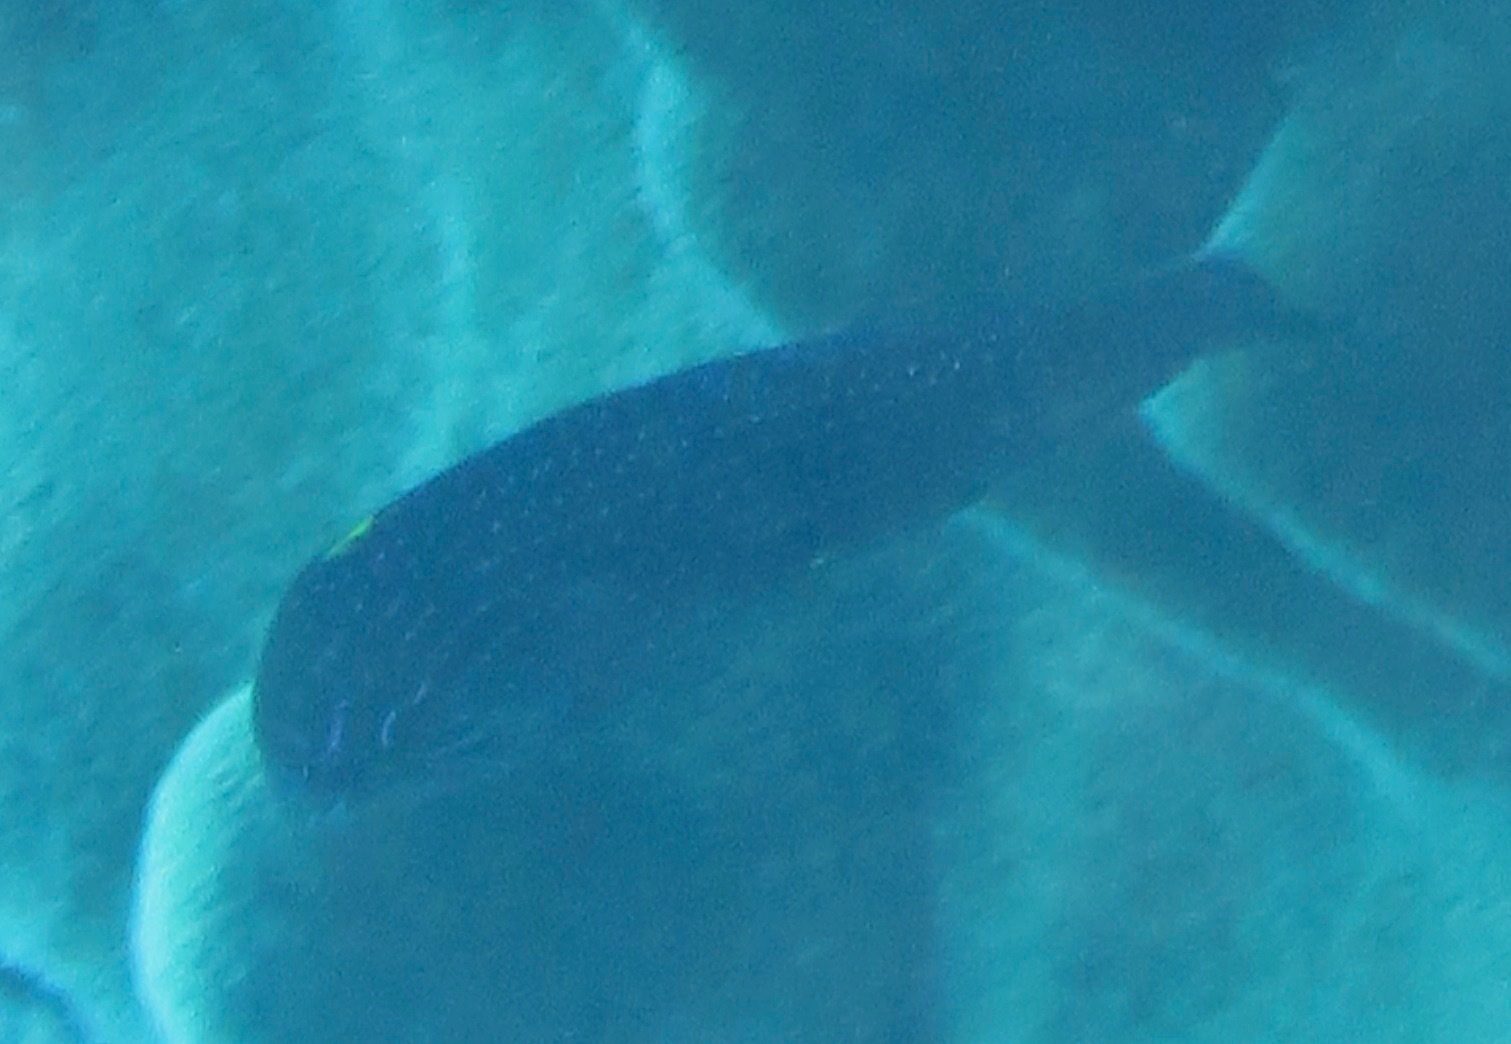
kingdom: Animalia
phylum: Chordata
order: Perciformes
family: Labridae
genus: Macropharyngodon
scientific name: Macropharyngodon cyanoguttatus
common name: Bluespotted wrasse
